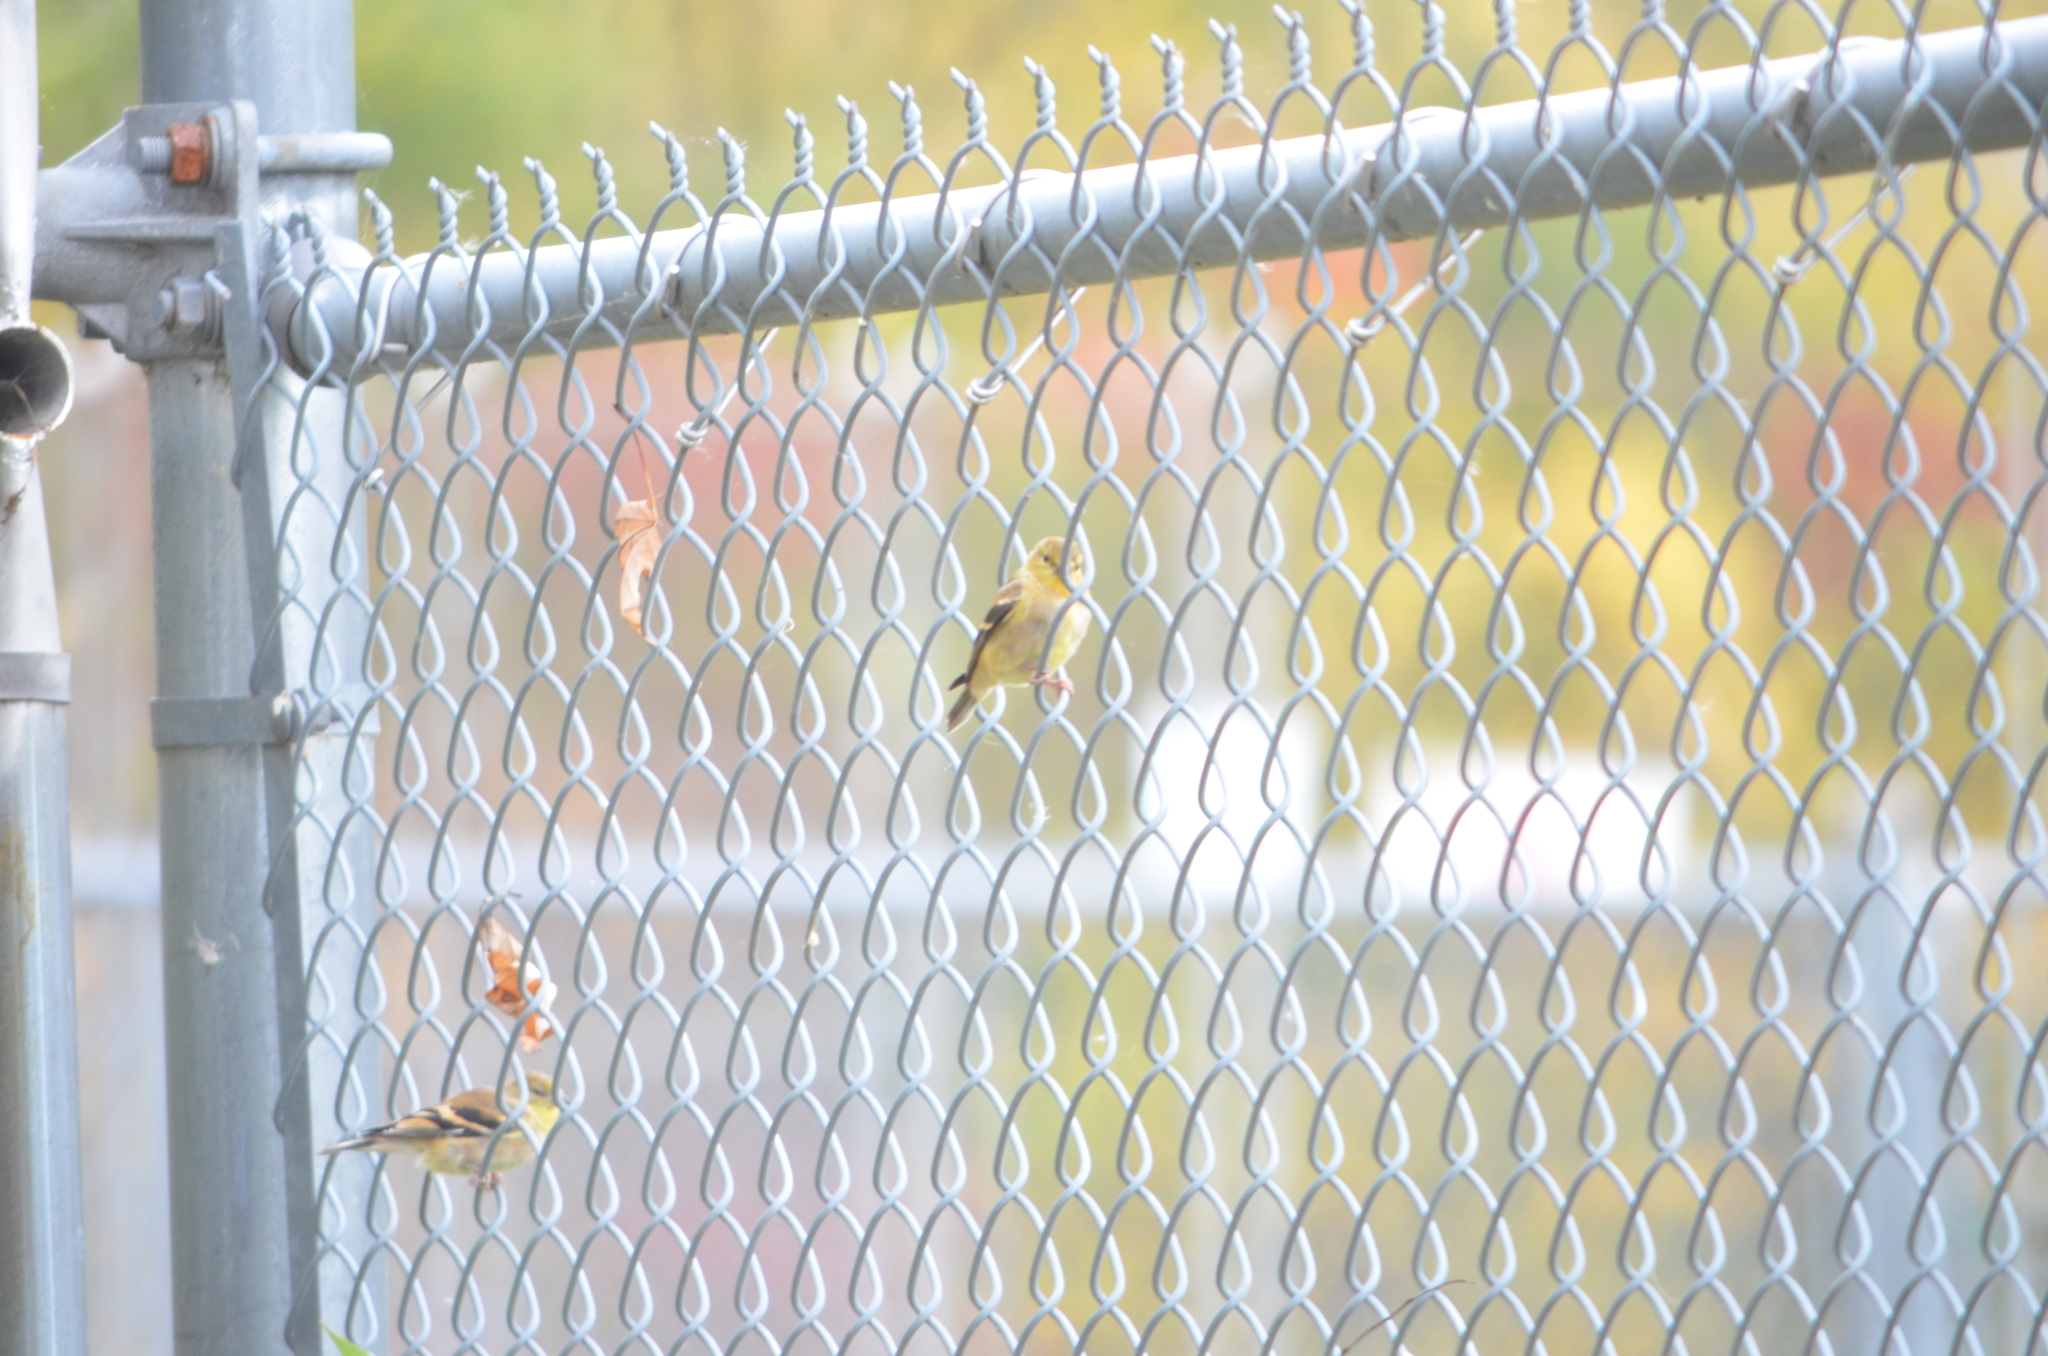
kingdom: Animalia
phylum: Chordata
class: Aves
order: Passeriformes
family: Fringillidae
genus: Spinus
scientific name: Spinus tristis
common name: American goldfinch
